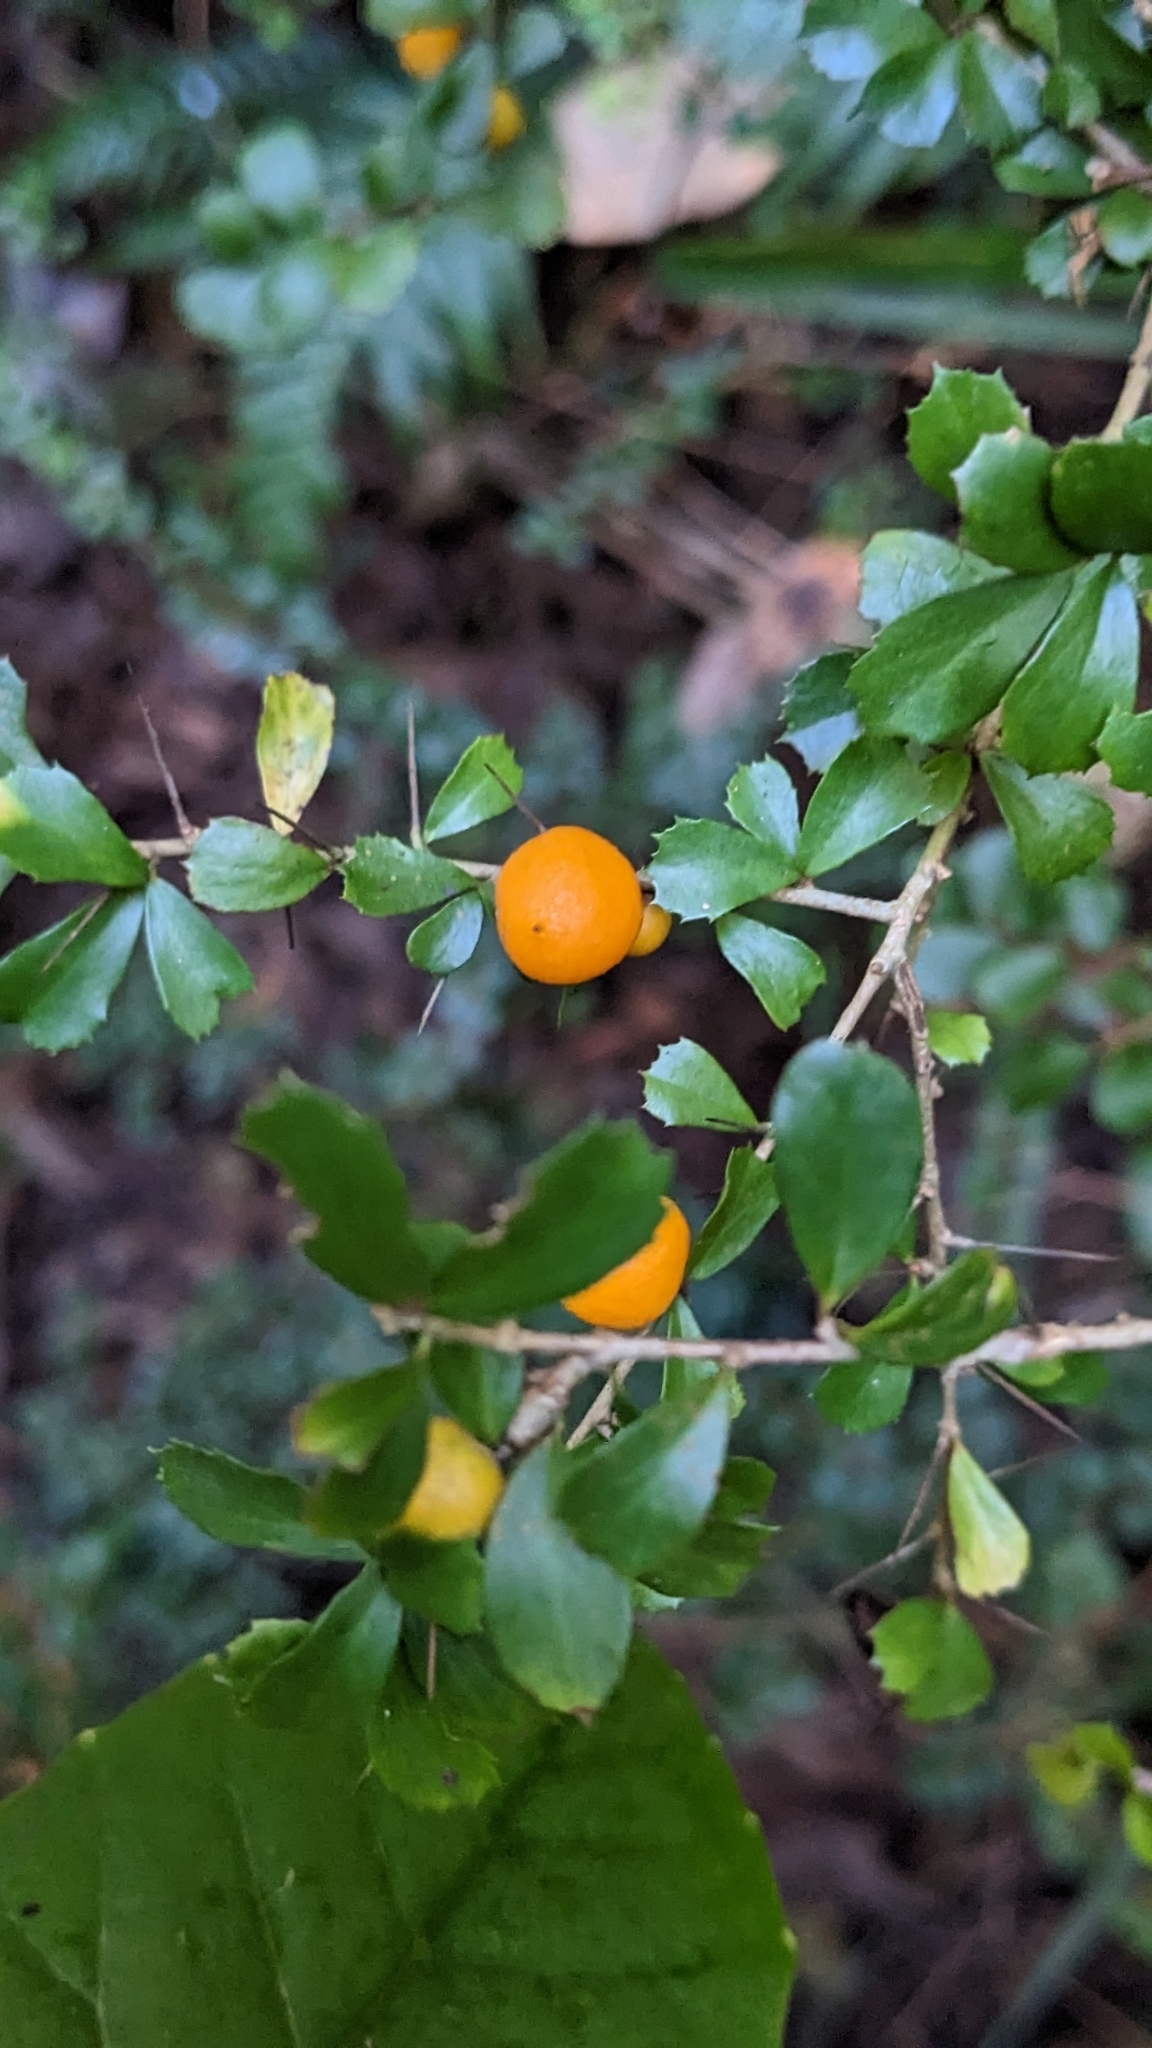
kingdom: Plantae
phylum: Tracheophyta
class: Magnoliopsida
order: Apiales
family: Pittosporaceae
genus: Pittosporum
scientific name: Pittosporum multiflorum
